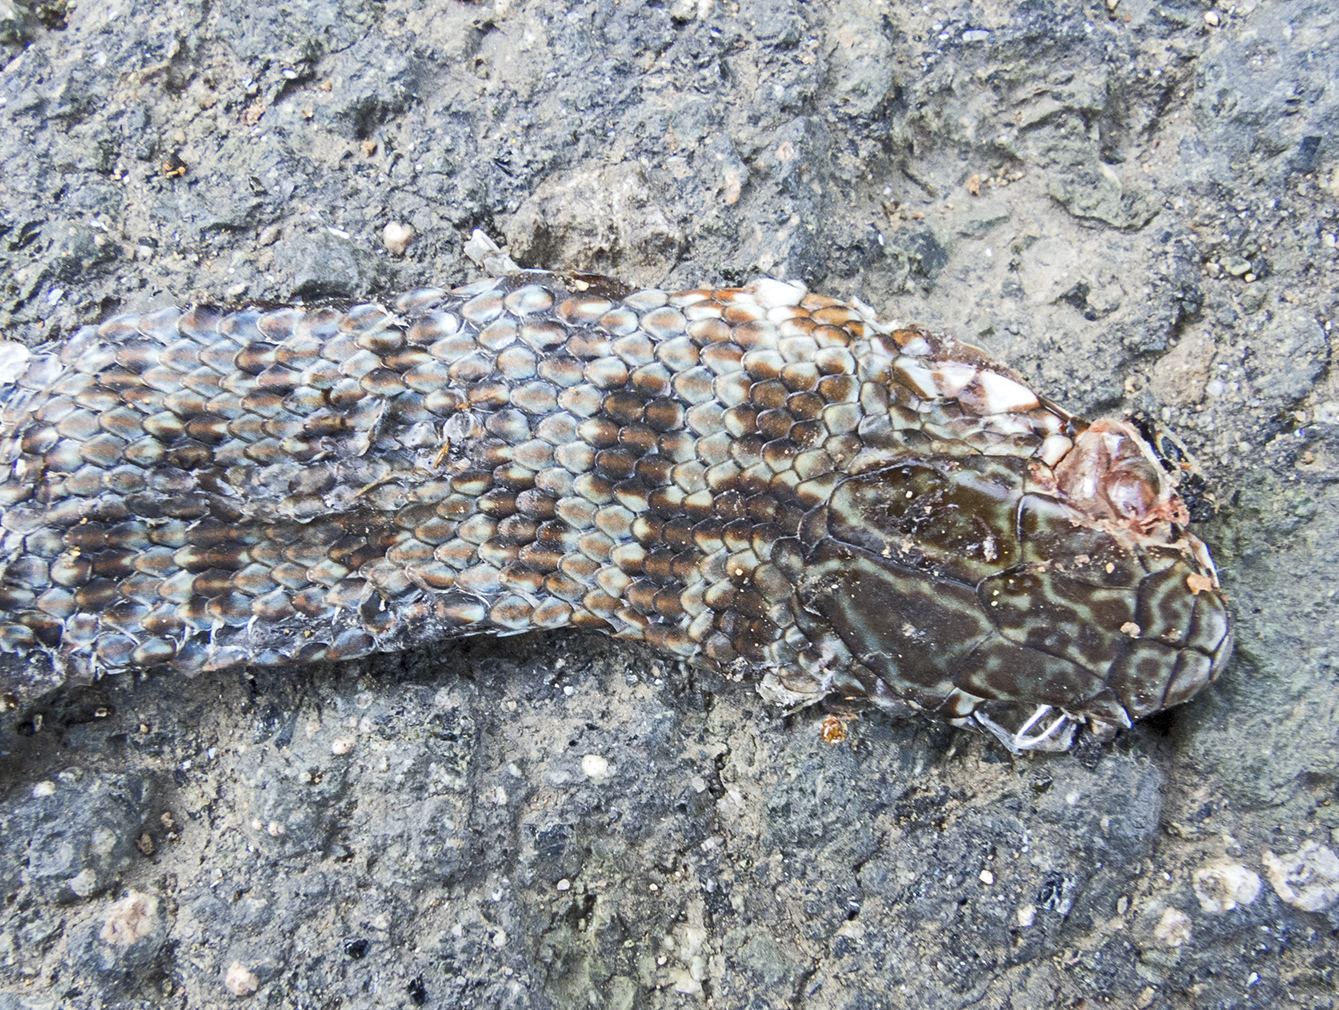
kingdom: Animalia
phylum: Chordata
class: Squamata
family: Colubridae
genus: Dolichophis
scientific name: Dolichophis caspius
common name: Large whip snake
